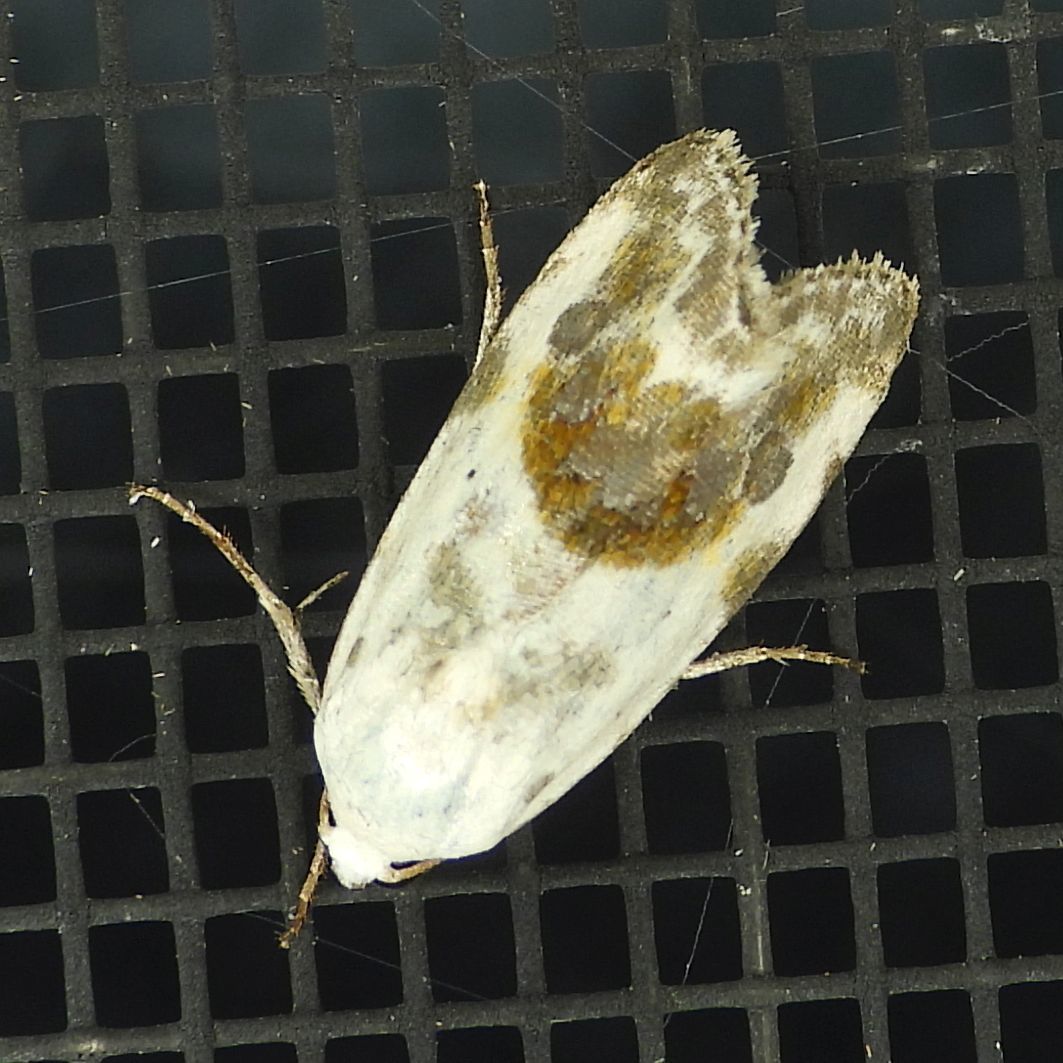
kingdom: Animalia
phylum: Arthropoda
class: Insecta
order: Lepidoptera
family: Noctuidae
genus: Acontia
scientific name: Acontia candefacta
